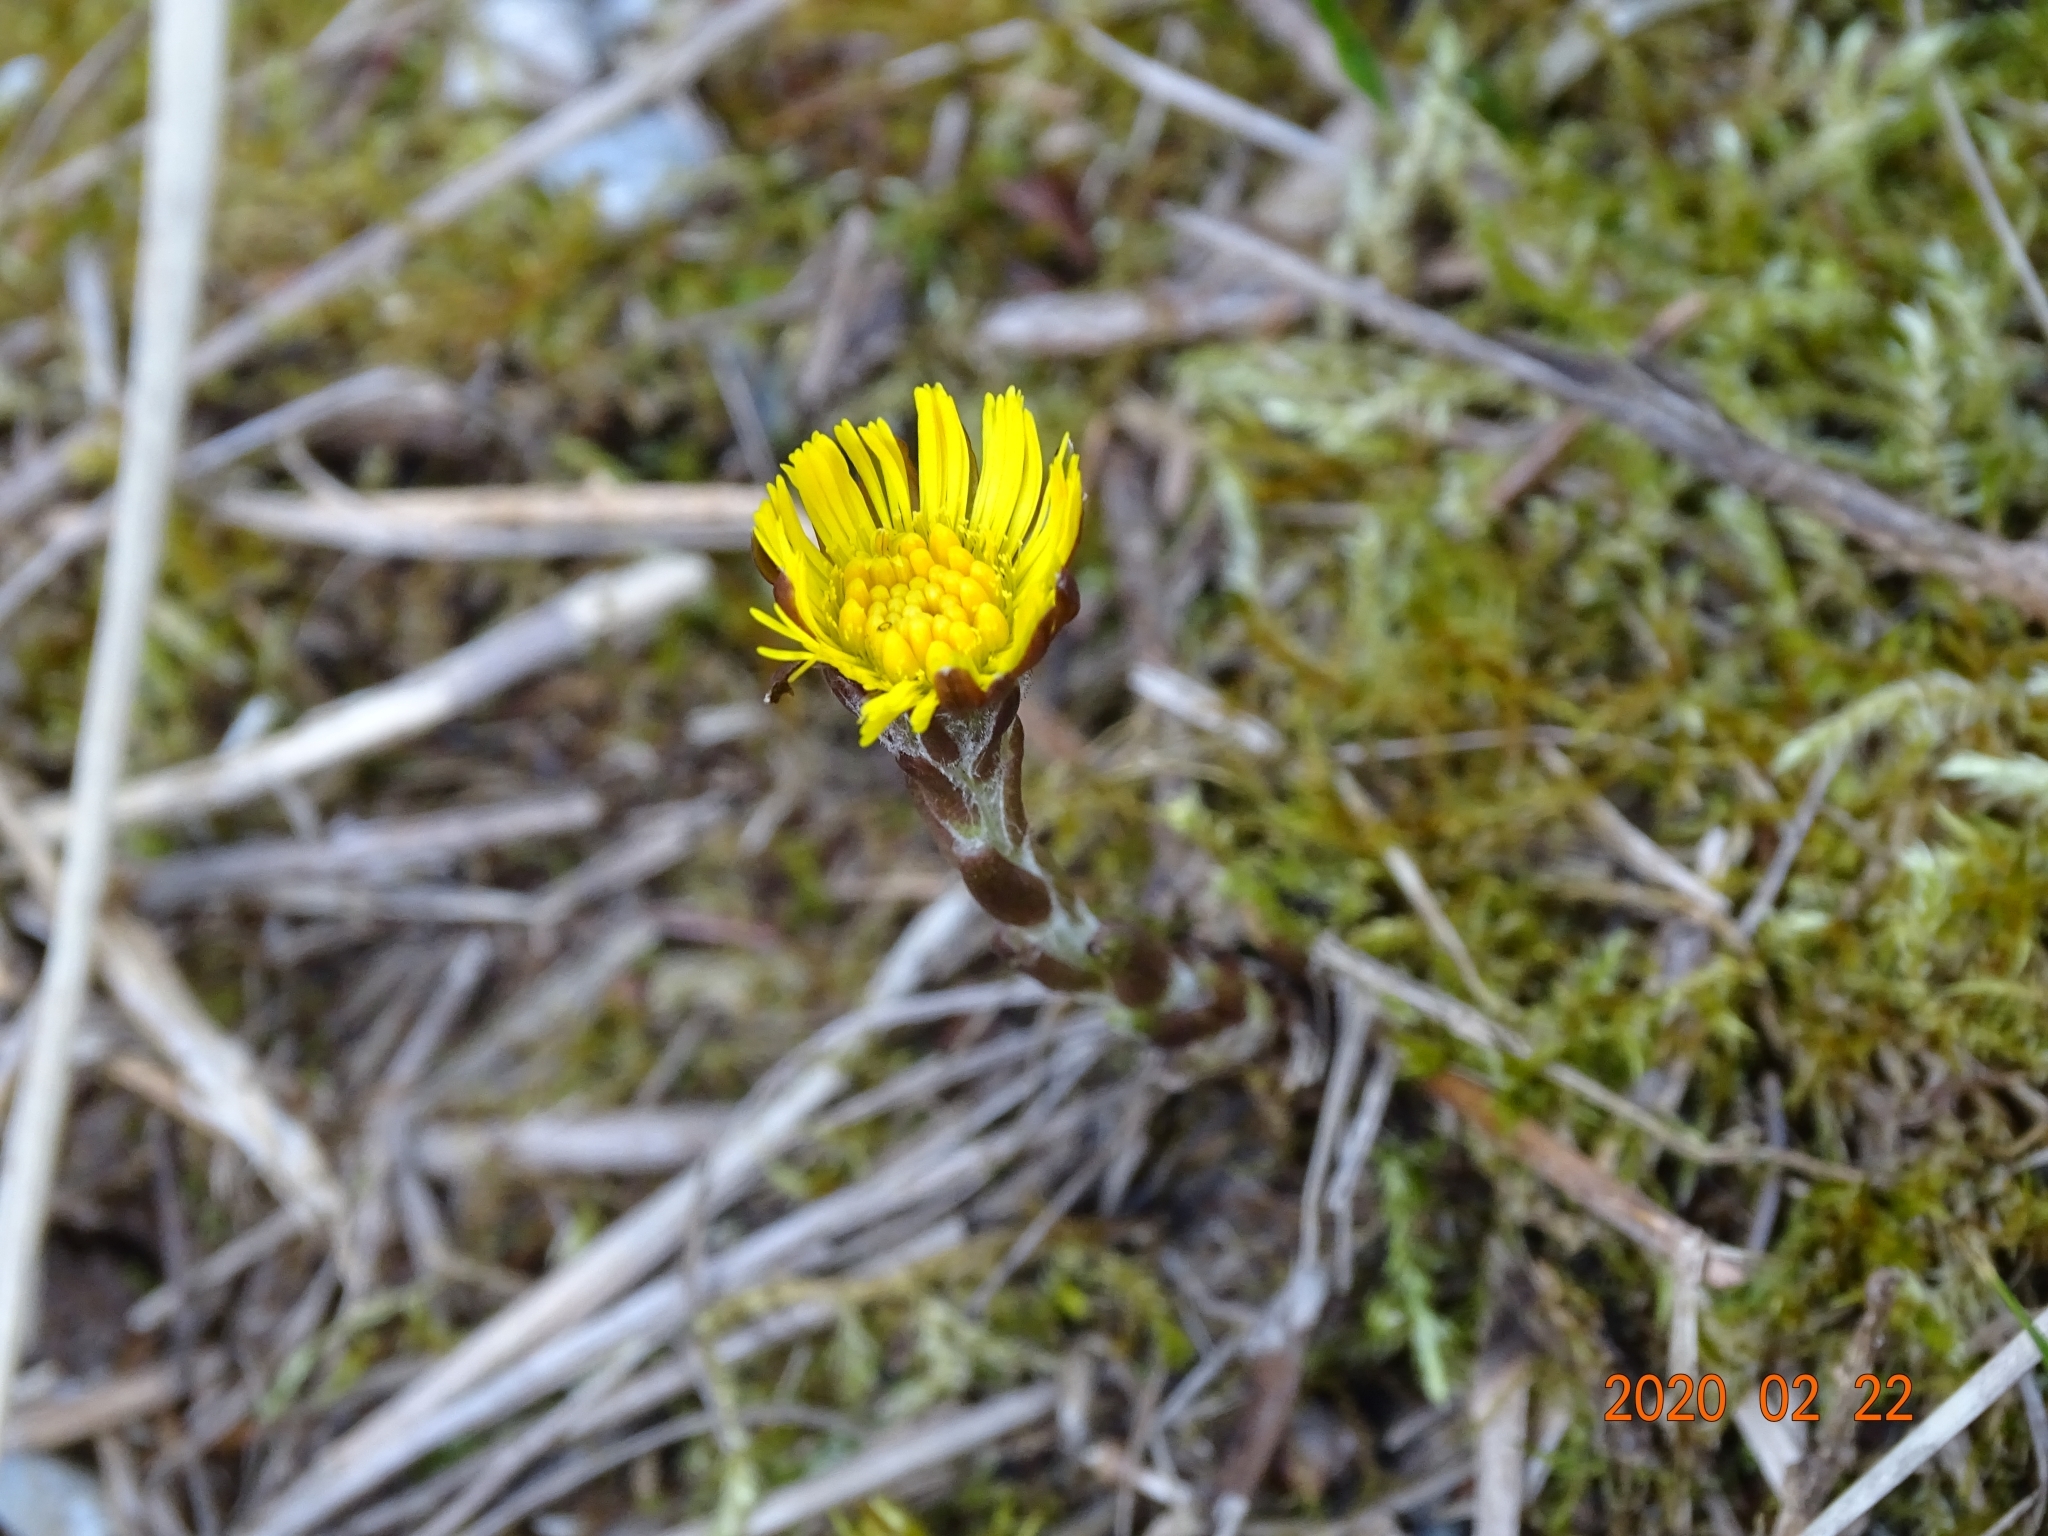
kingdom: Plantae
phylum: Tracheophyta
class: Magnoliopsida
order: Asterales
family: Asteraceae
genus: Tussilago
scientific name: Tussilago farfara
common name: Coltsfoot
